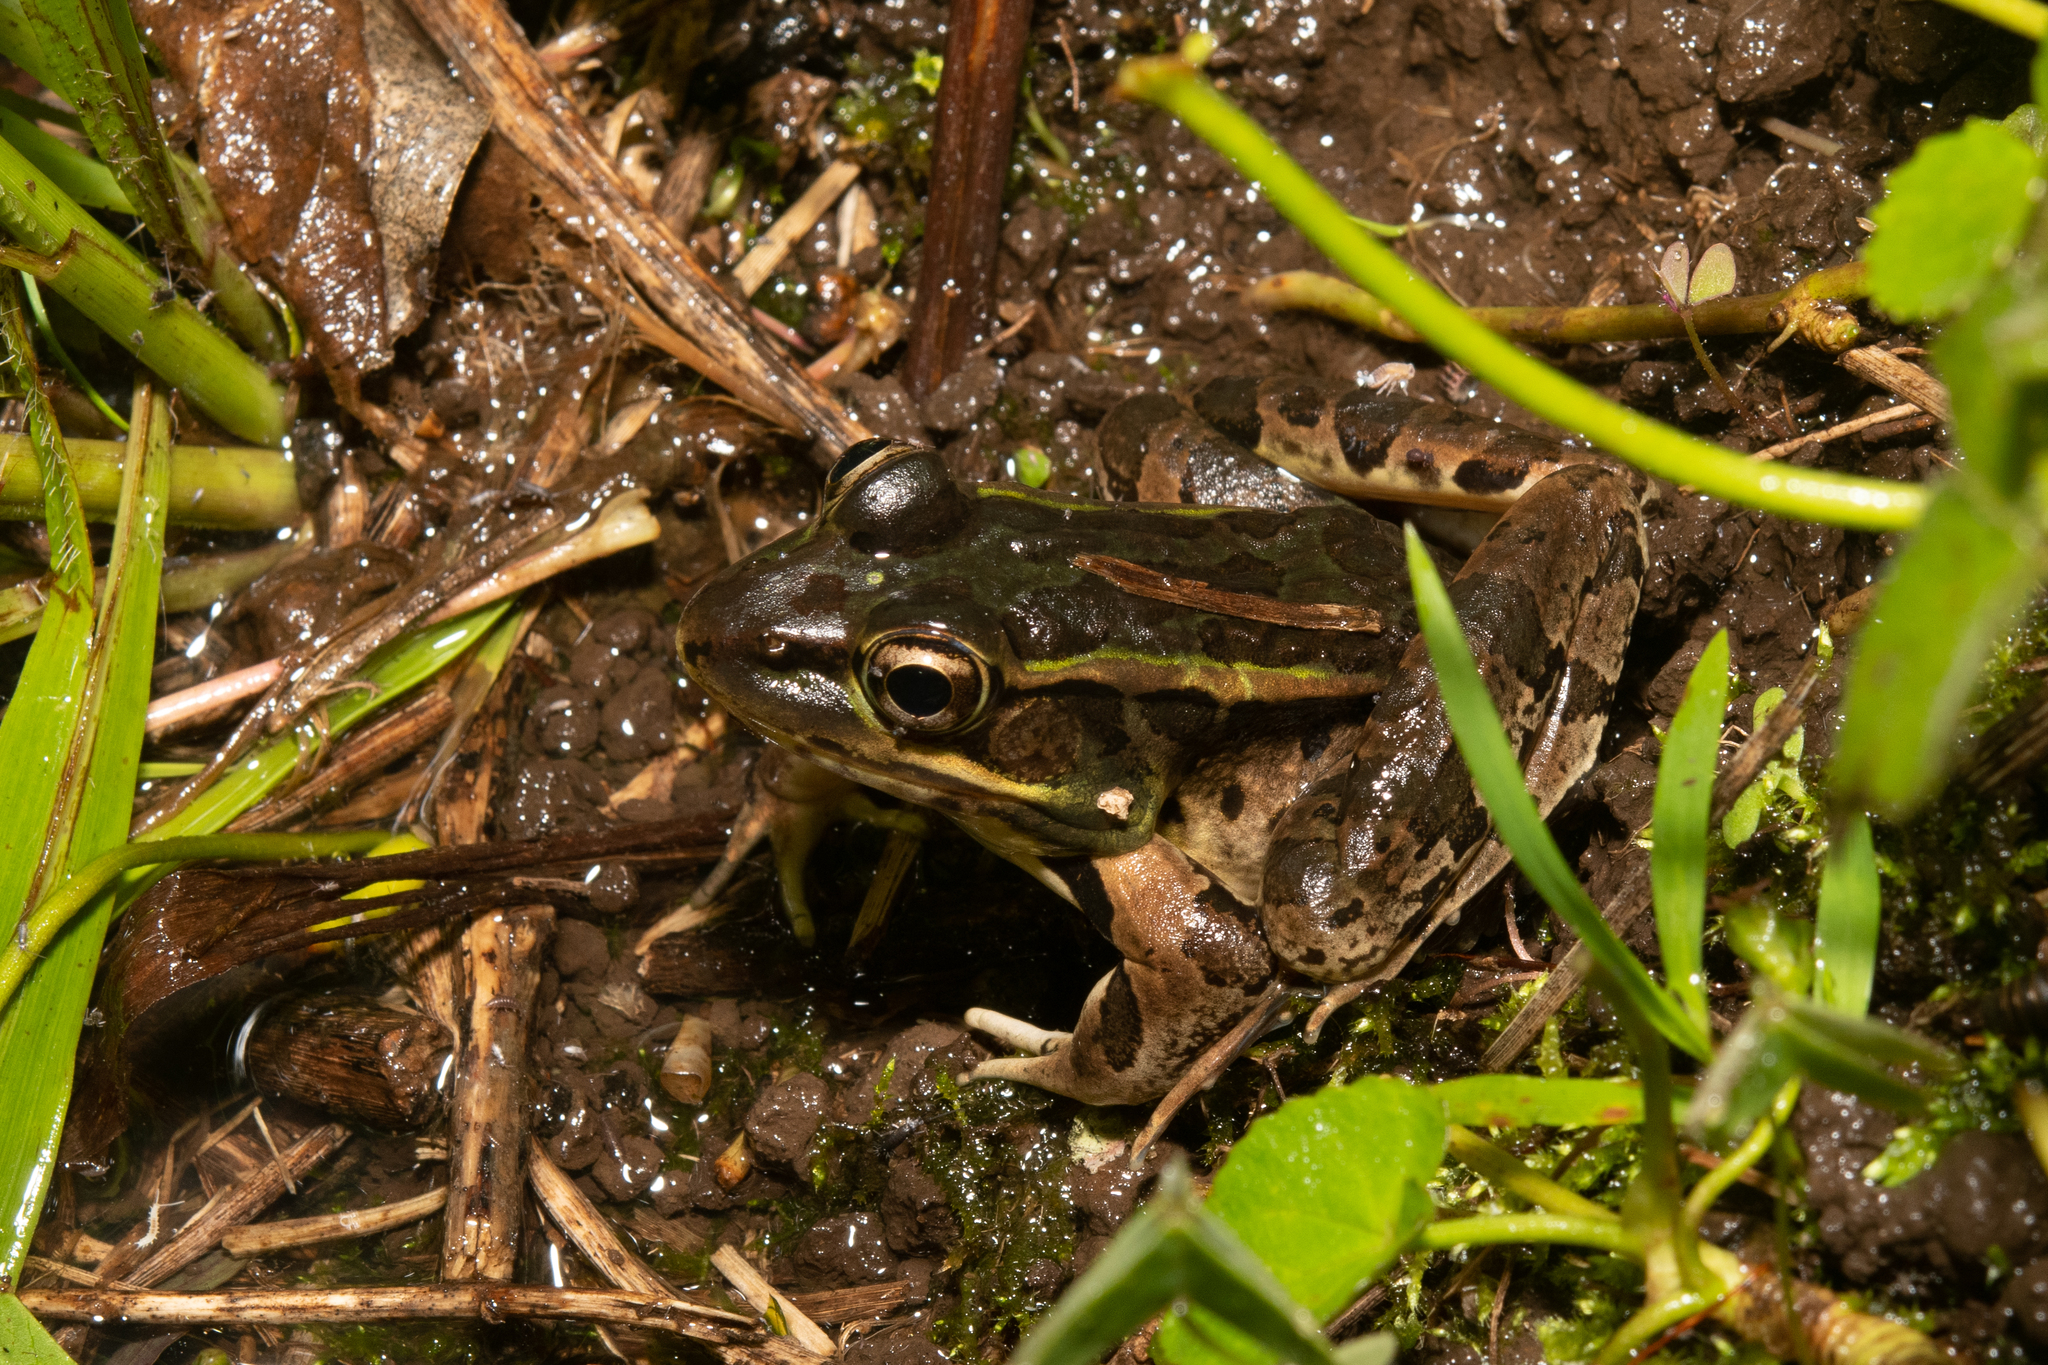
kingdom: Animalia
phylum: Chordata
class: Amphibia
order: Anura
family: Ranidae
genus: Lithobates
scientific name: Lithobates lenca
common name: Lenca leopard frog
